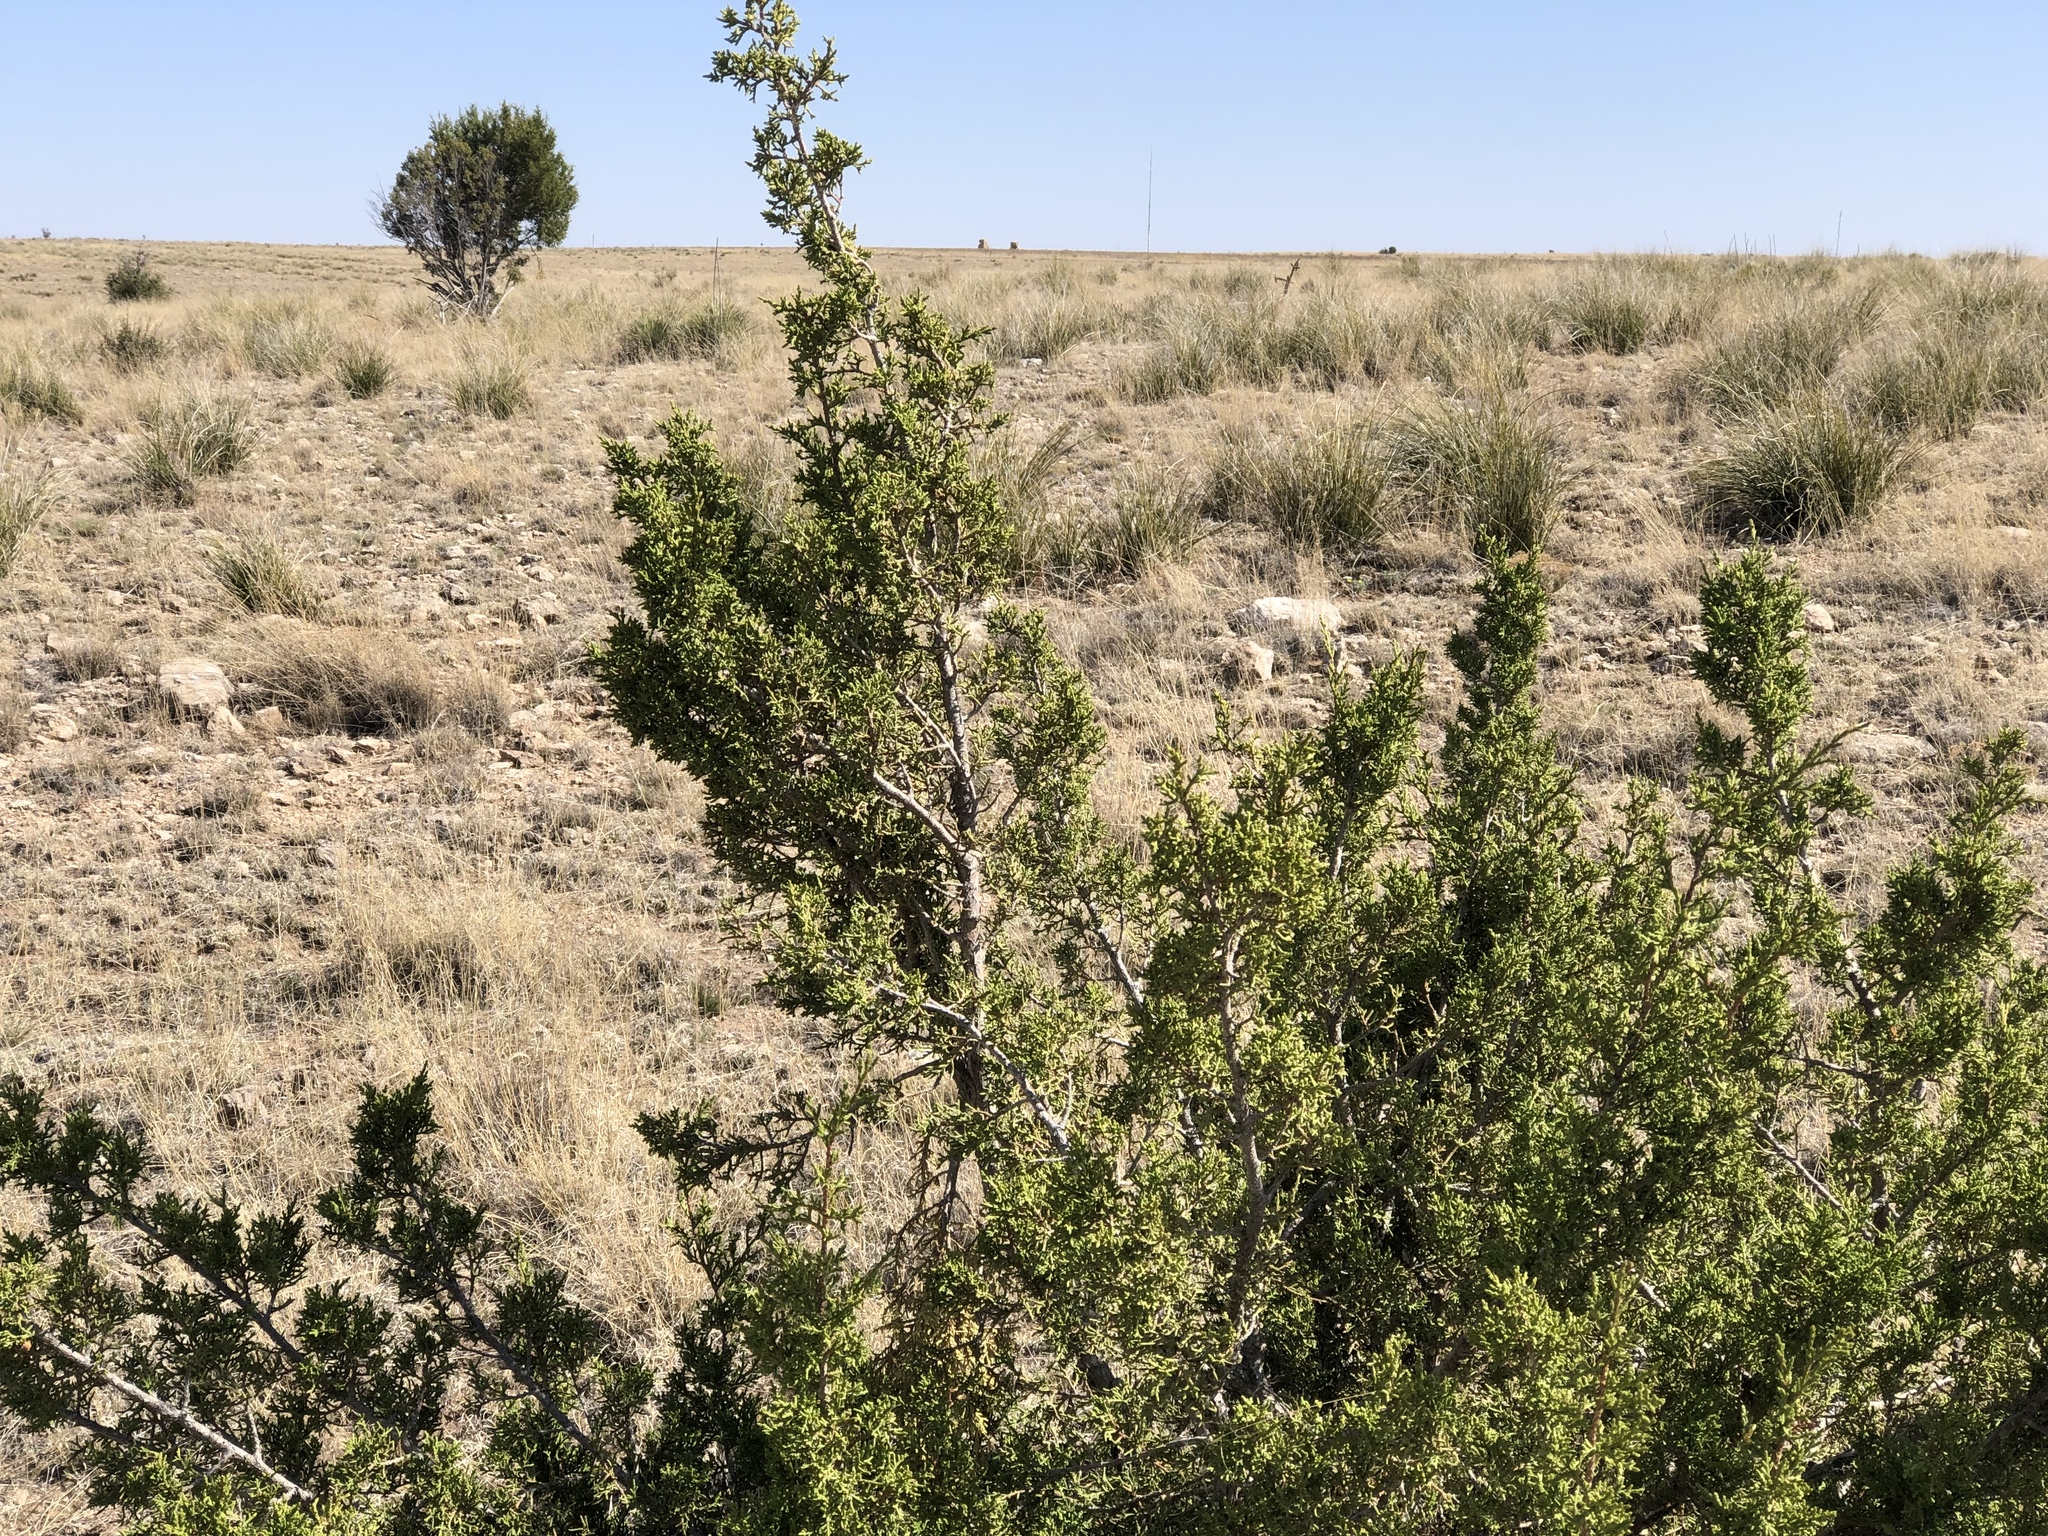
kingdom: Plantae
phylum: Tracheophyta
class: Pinopsida
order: Pinales
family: Cupressaceae
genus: Juniperus
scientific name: Juniperus monosperma
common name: One-seed juniper
